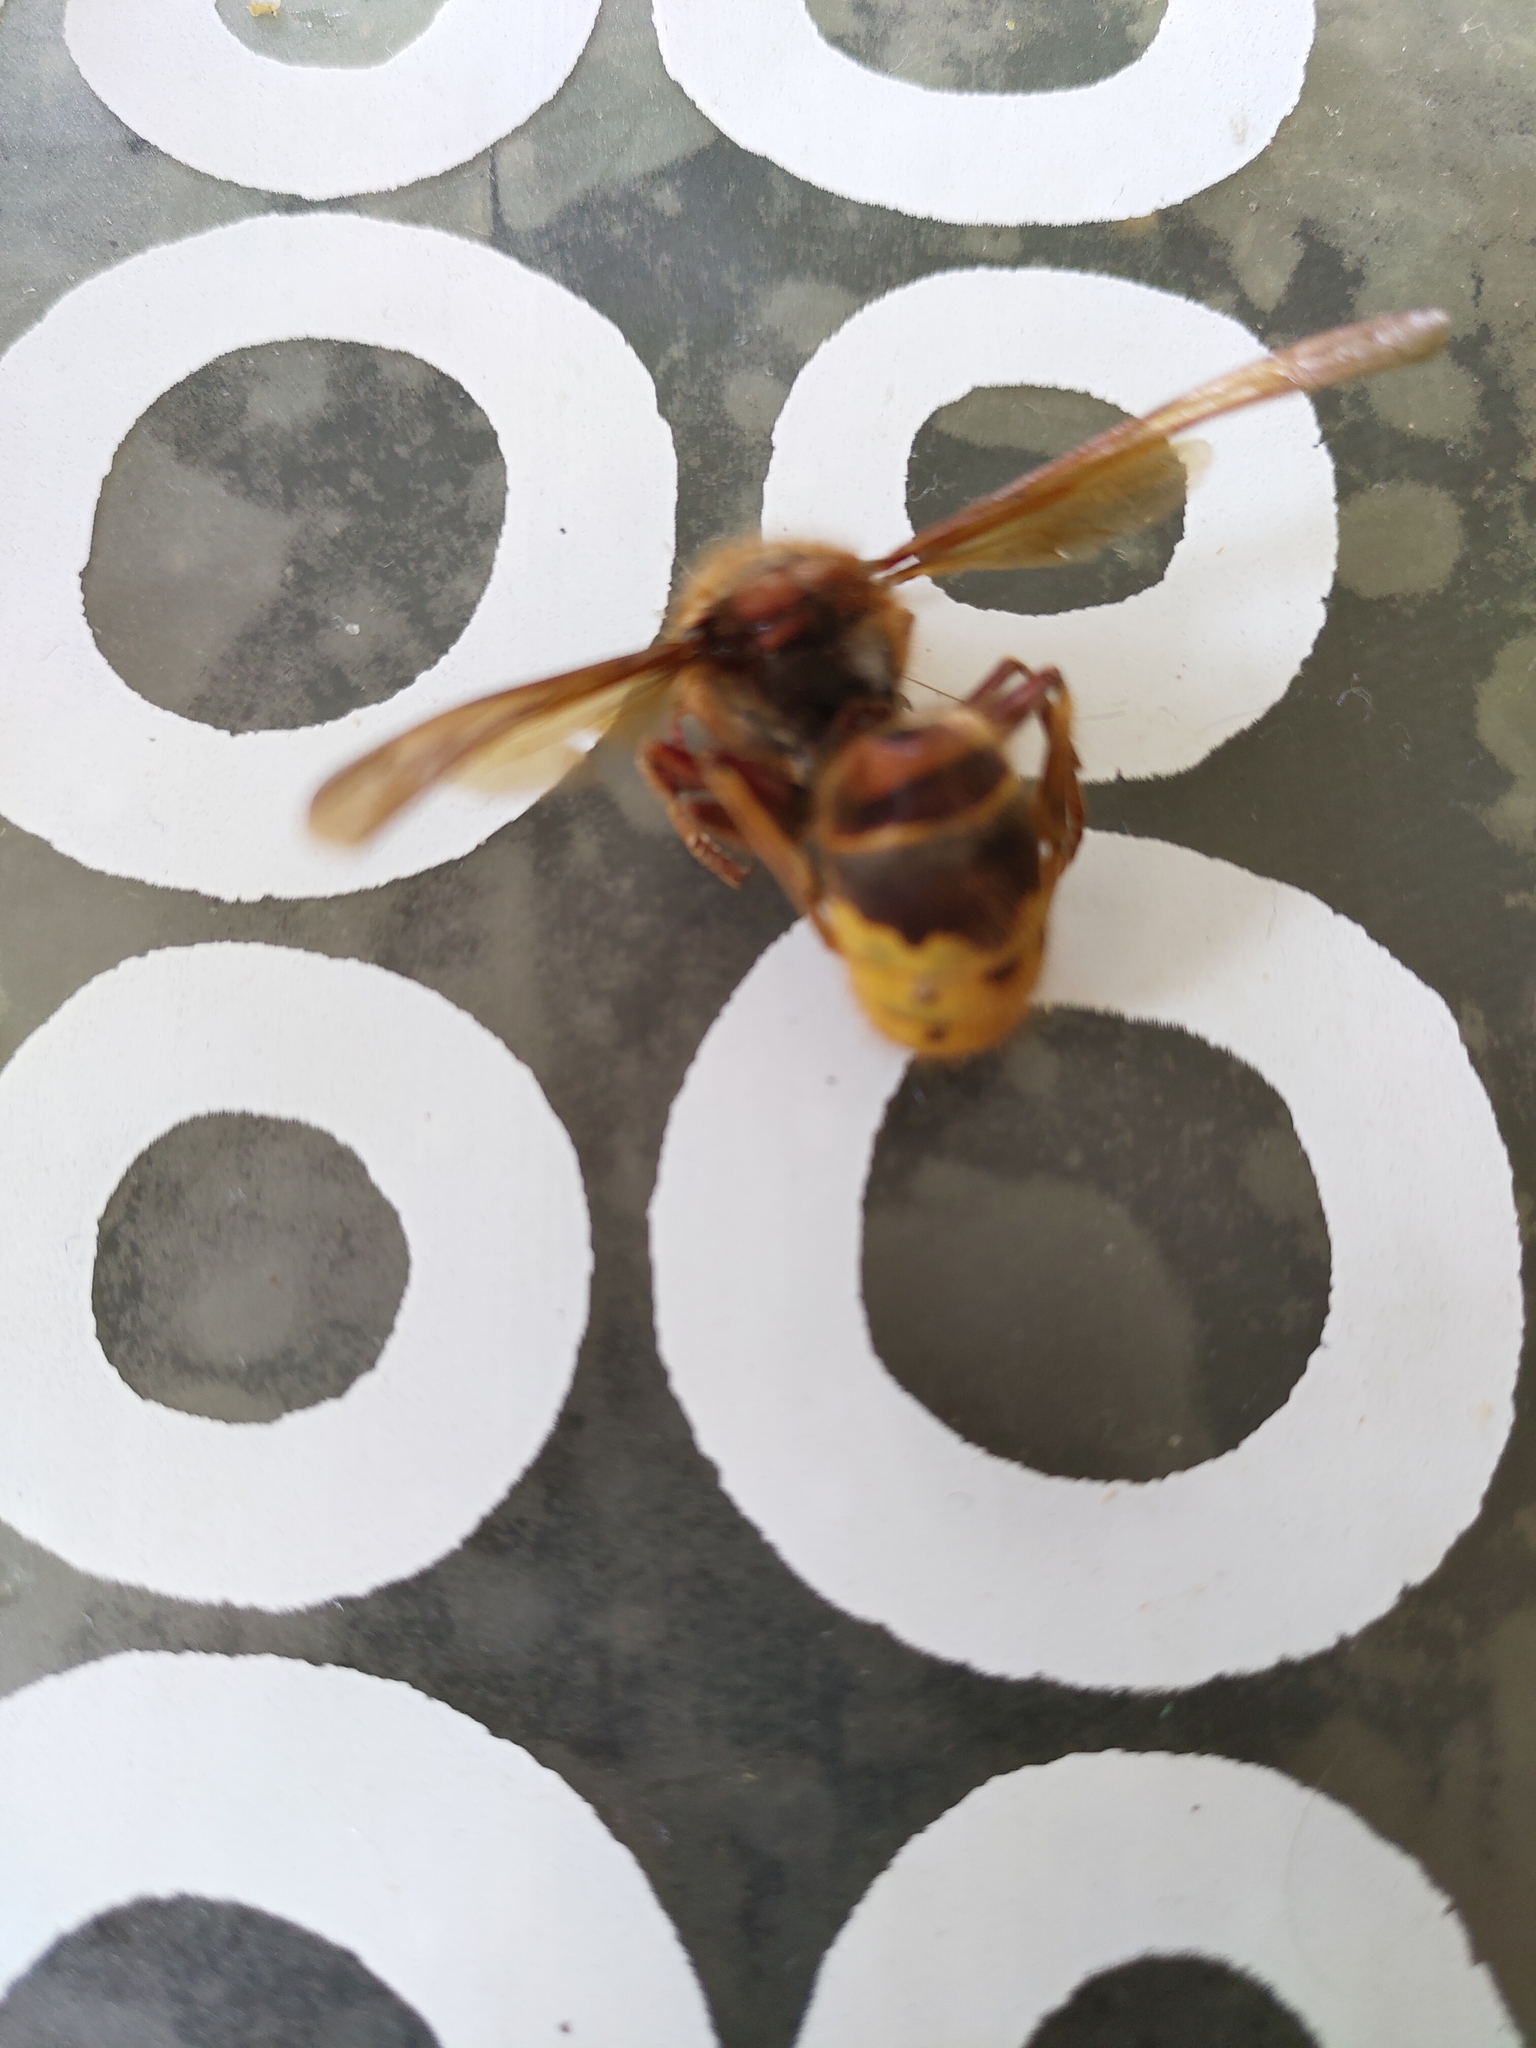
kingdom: Animalia
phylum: Arthropoda
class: Insecta
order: Hymenoptera
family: Vespidae
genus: Vespa
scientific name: Vespa crabro
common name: Hornet
